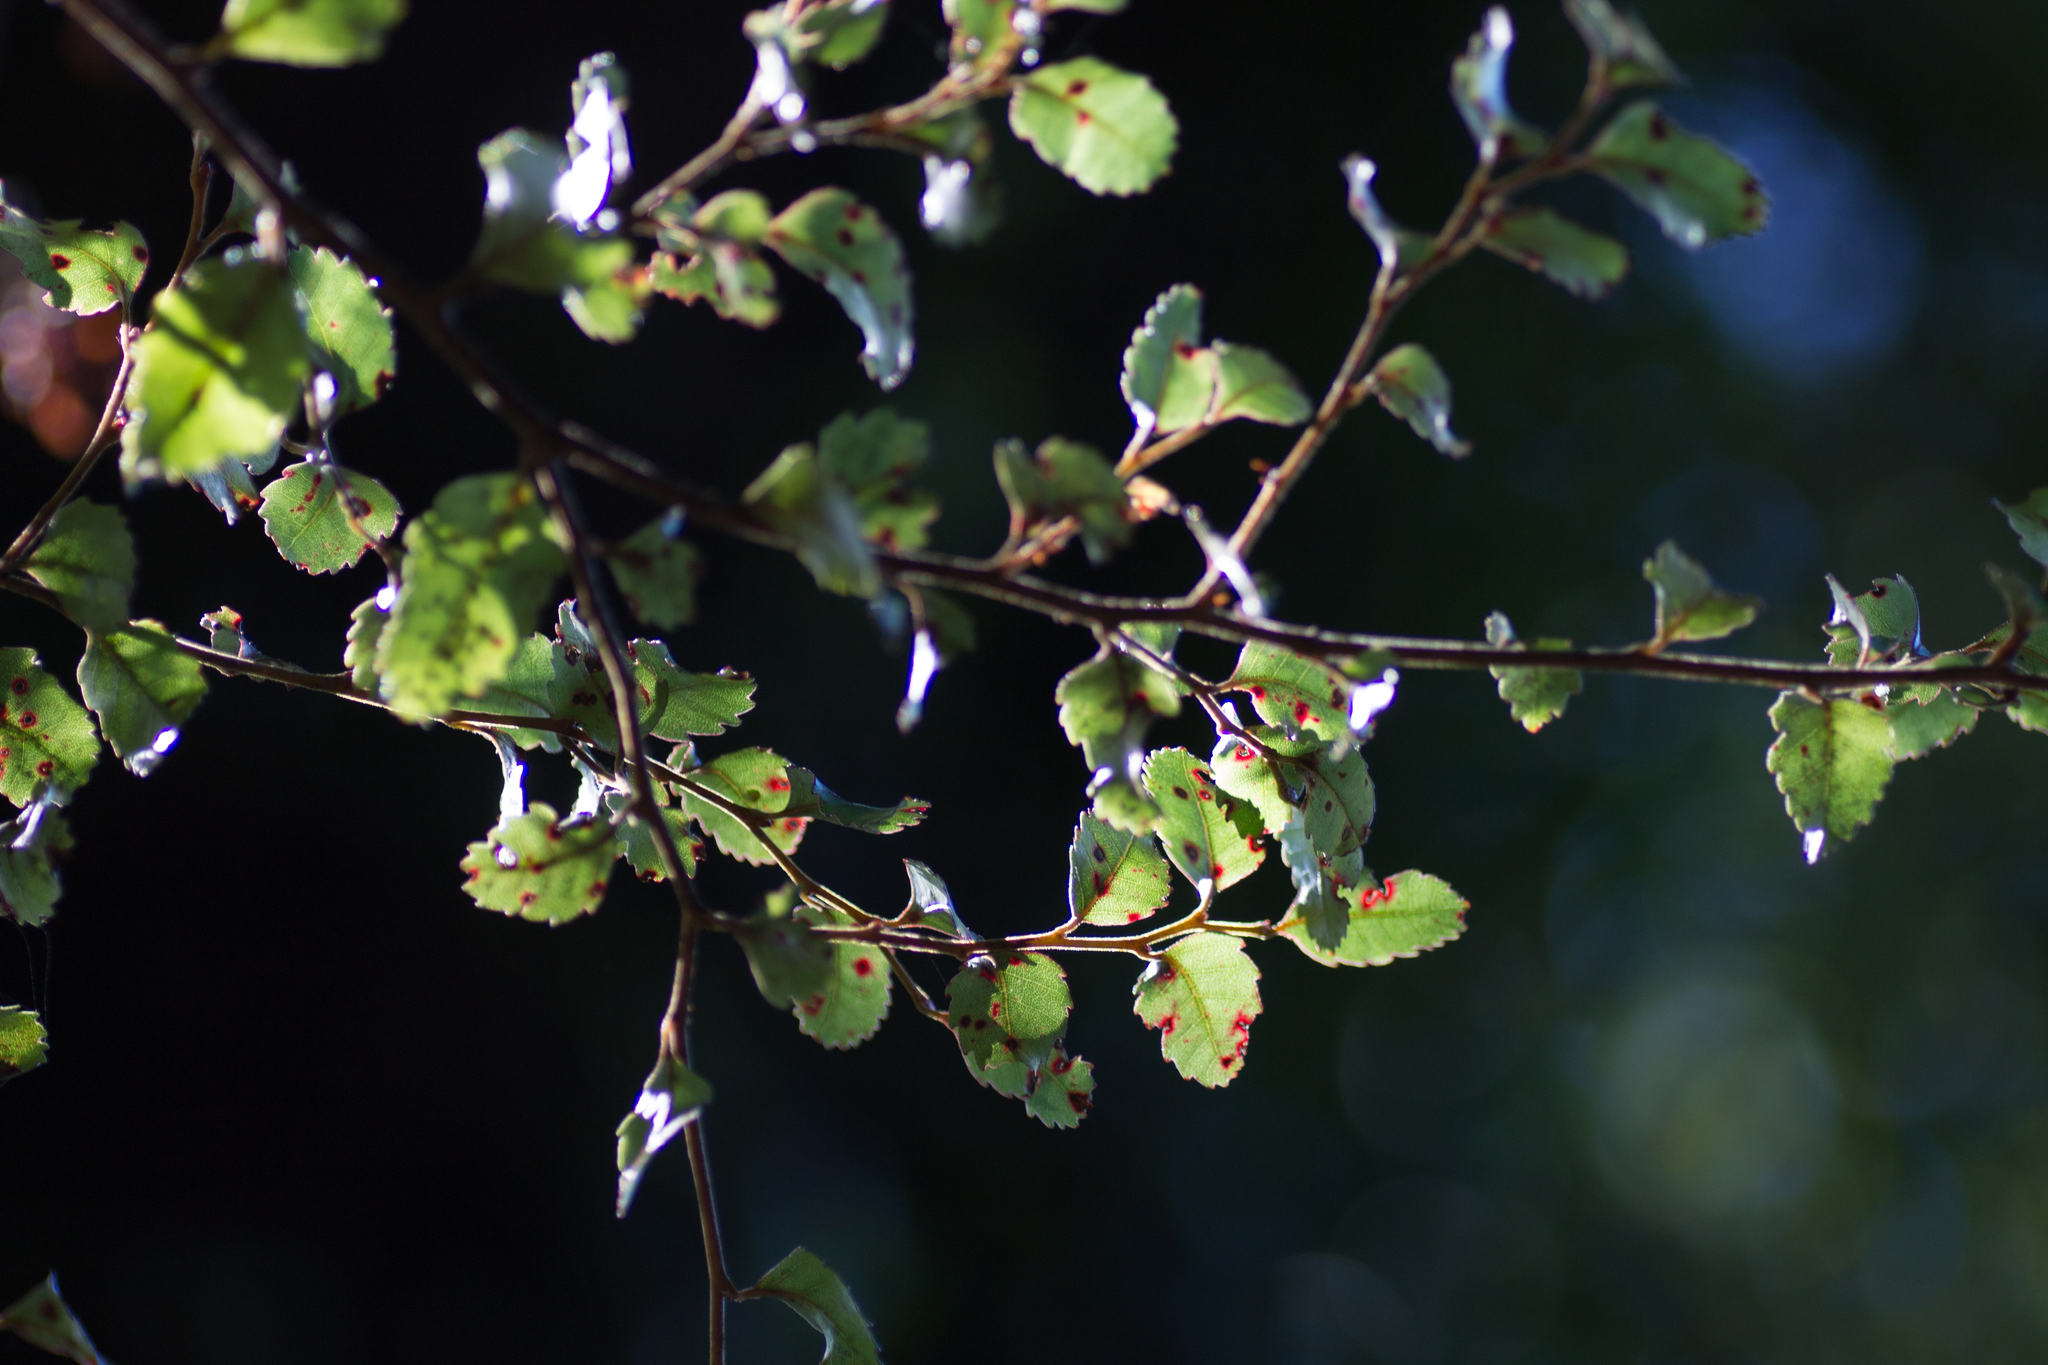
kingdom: Plantae
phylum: Tracheophyta
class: Magnoliopsida
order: Fagales
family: Nothofagaceae
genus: Nothofagus
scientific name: Nothofagus truncata
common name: Hard beech
